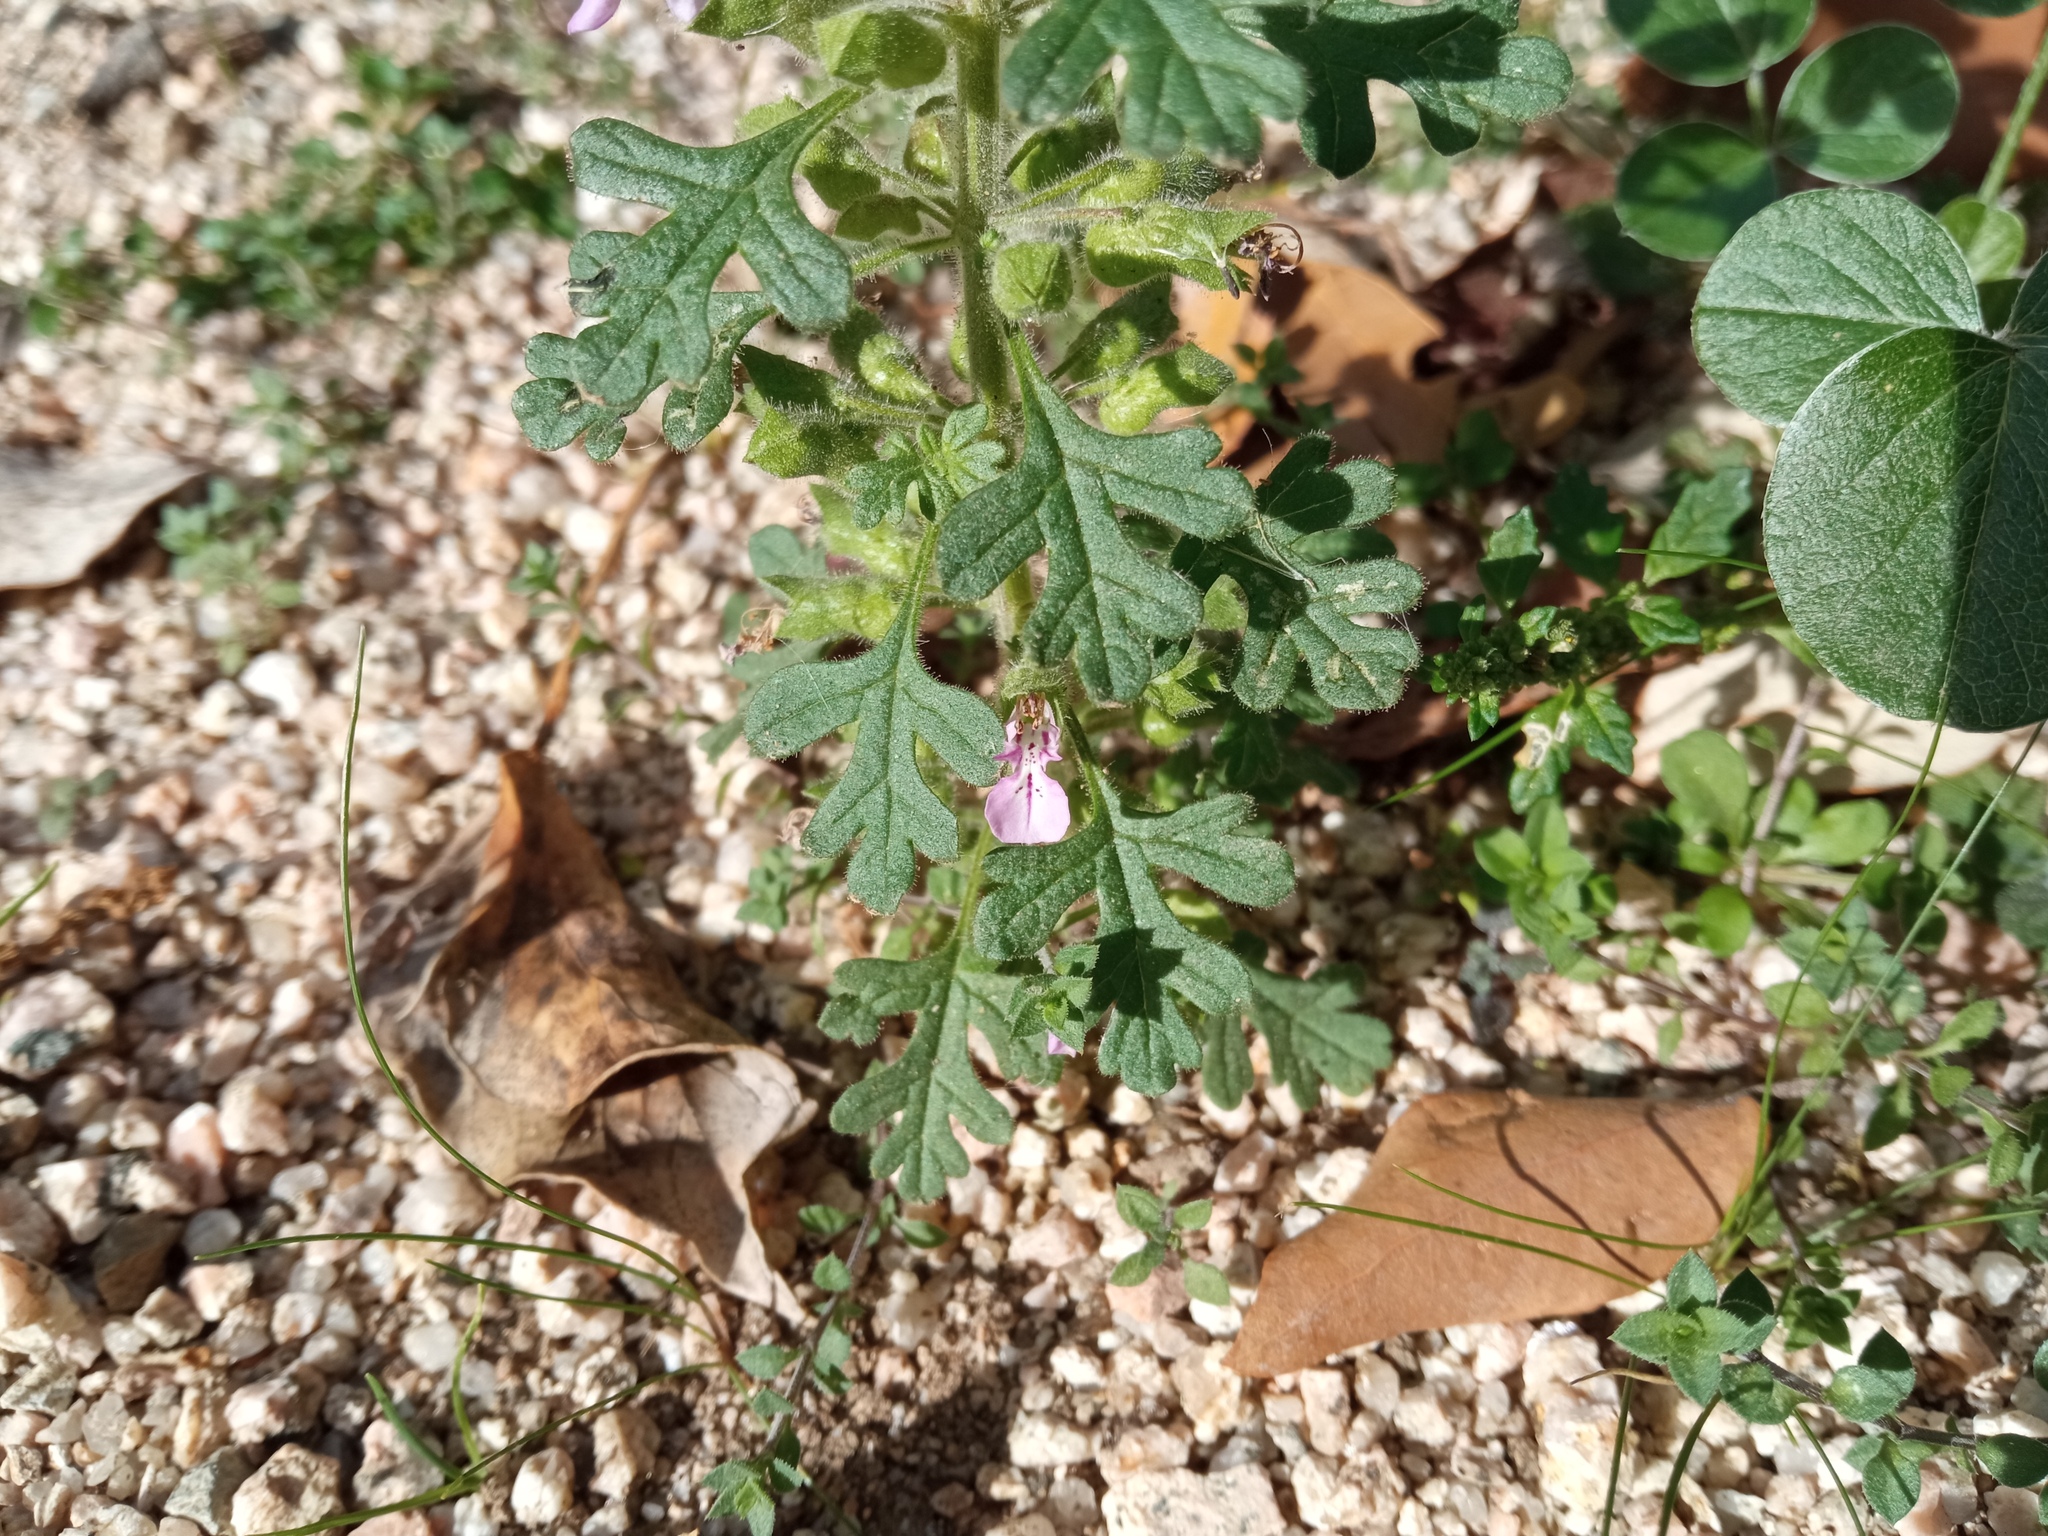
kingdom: Plantae
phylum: Tracheophyta
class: Magnoliopsida
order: Lamiales
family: Lamiaceae
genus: Teucrium
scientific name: Teucrium botrys
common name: Cut-leaved germander
